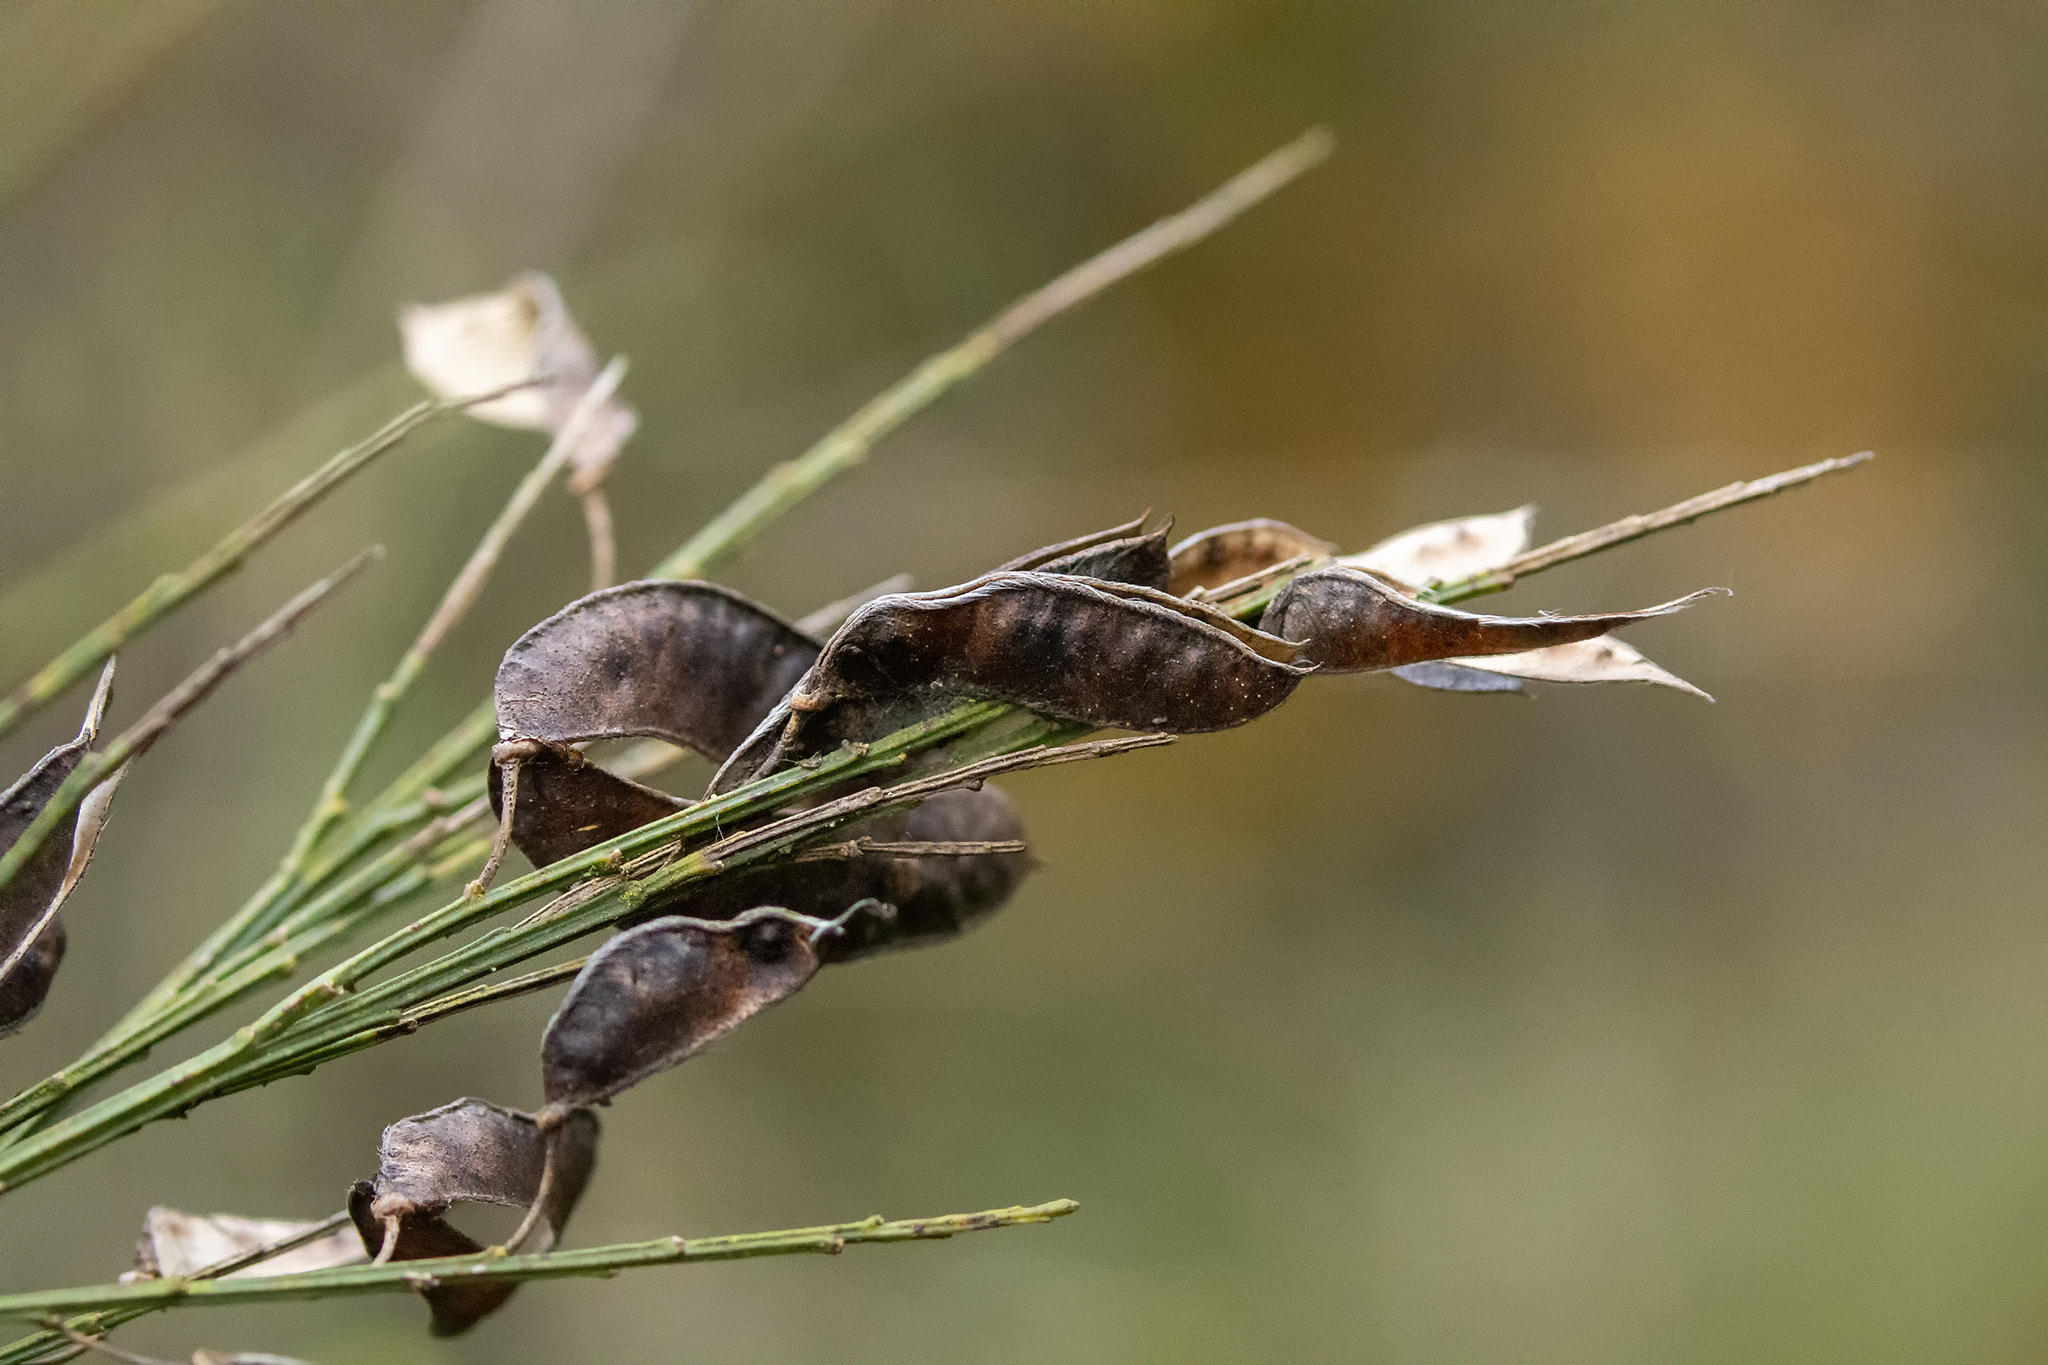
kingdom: Plantae
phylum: Tracheophyta
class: Magnoliopsida
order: Fabales
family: Fabaceae
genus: Cytisus
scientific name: Cytisus scoparius
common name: Scotch broom
